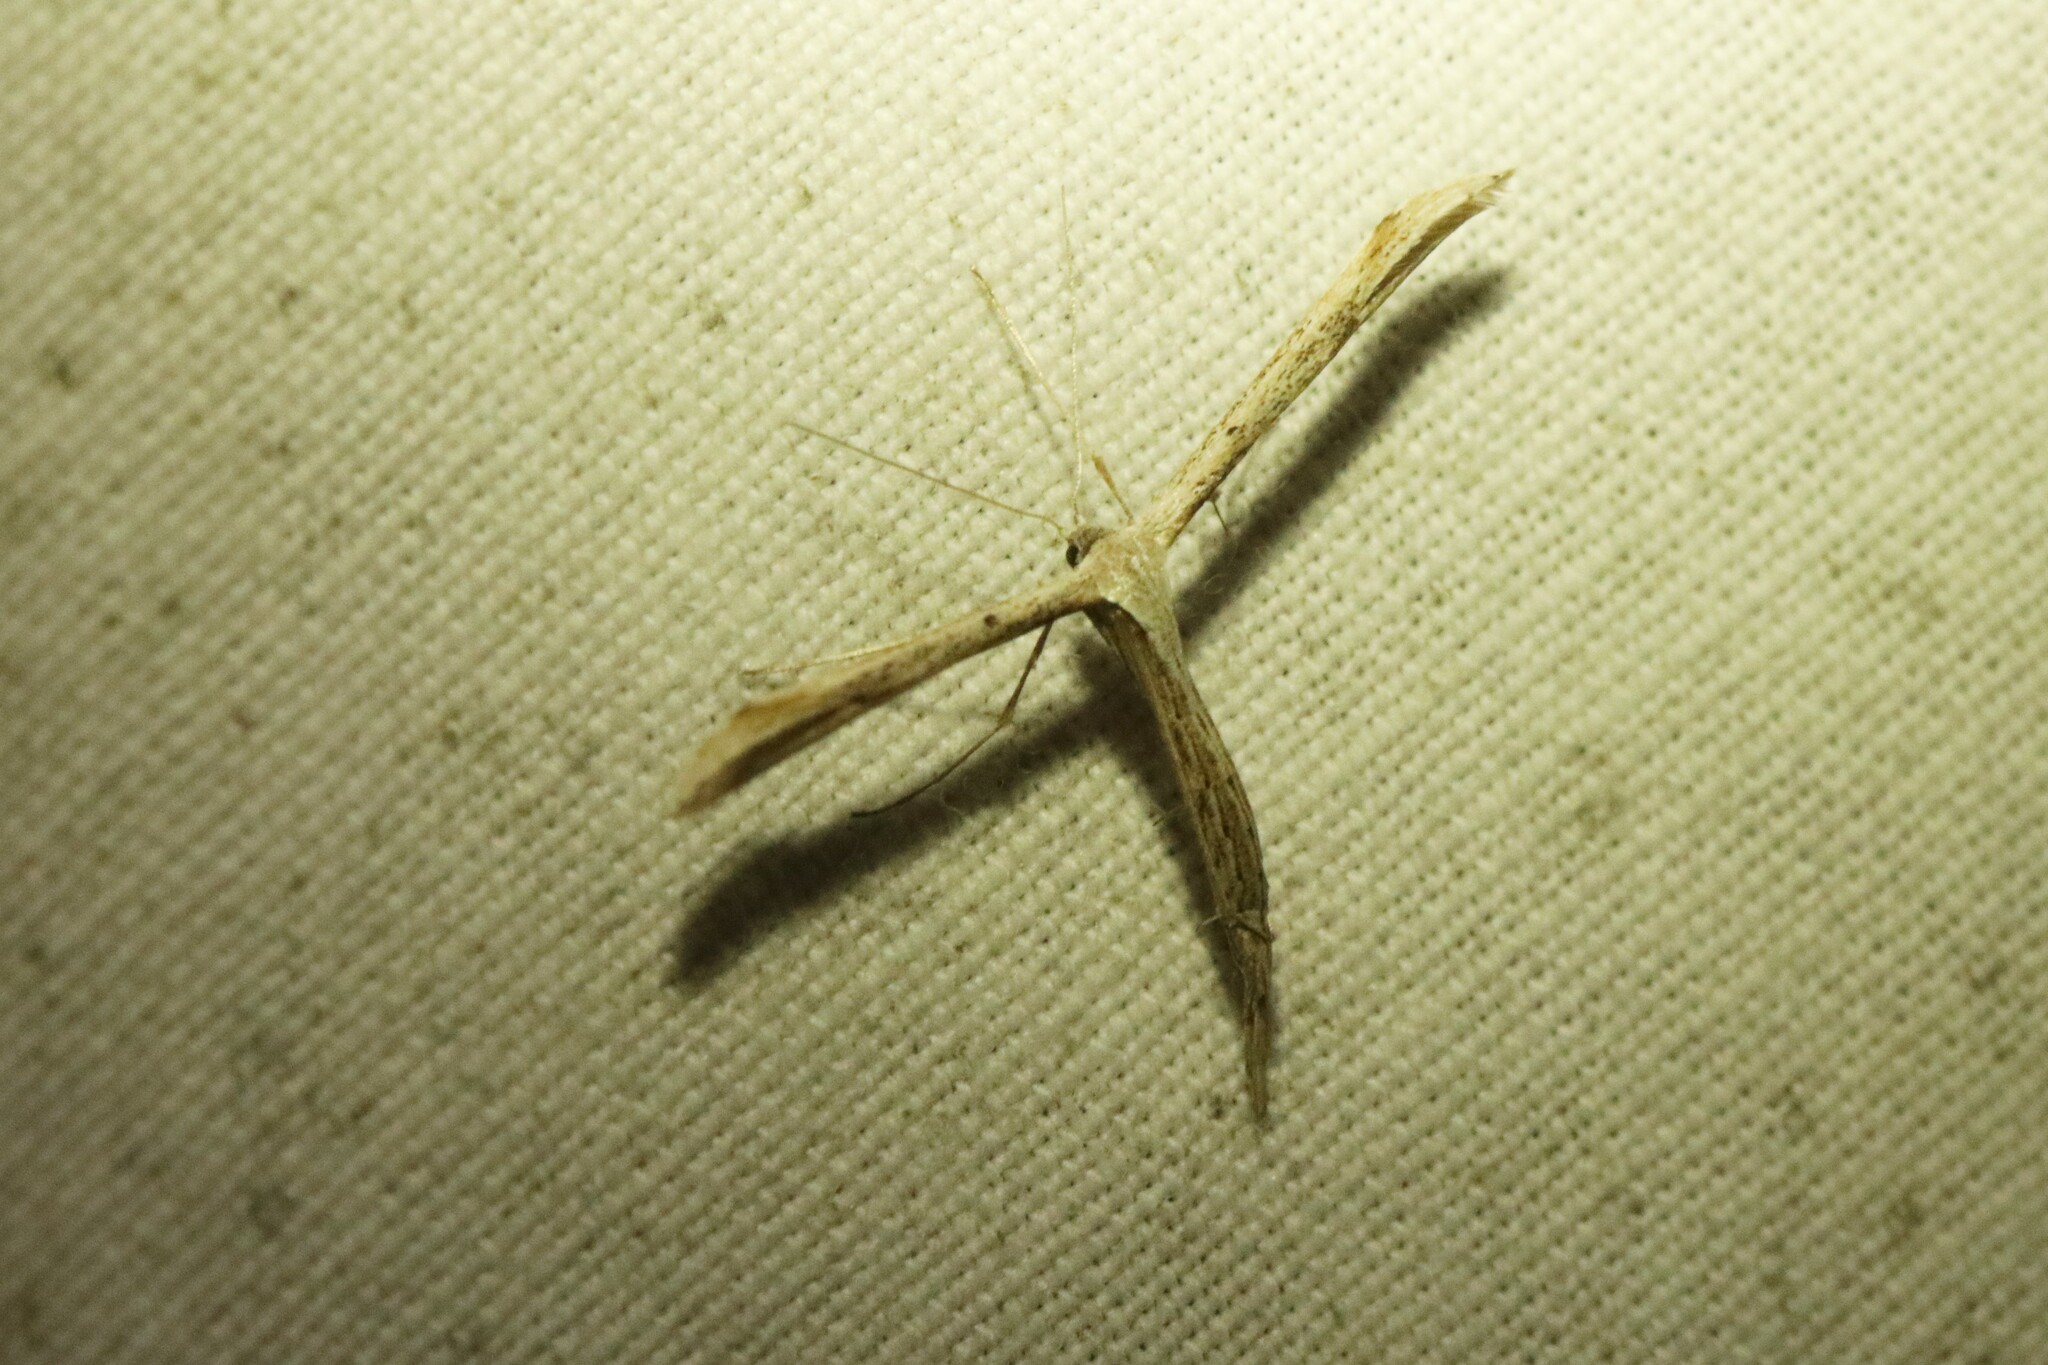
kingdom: Animalia
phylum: Arthropoda
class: Insecta
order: Lepidoptera
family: Pterophoridae
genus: Emmelina
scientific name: Emmelina monodactyla
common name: Common plume
